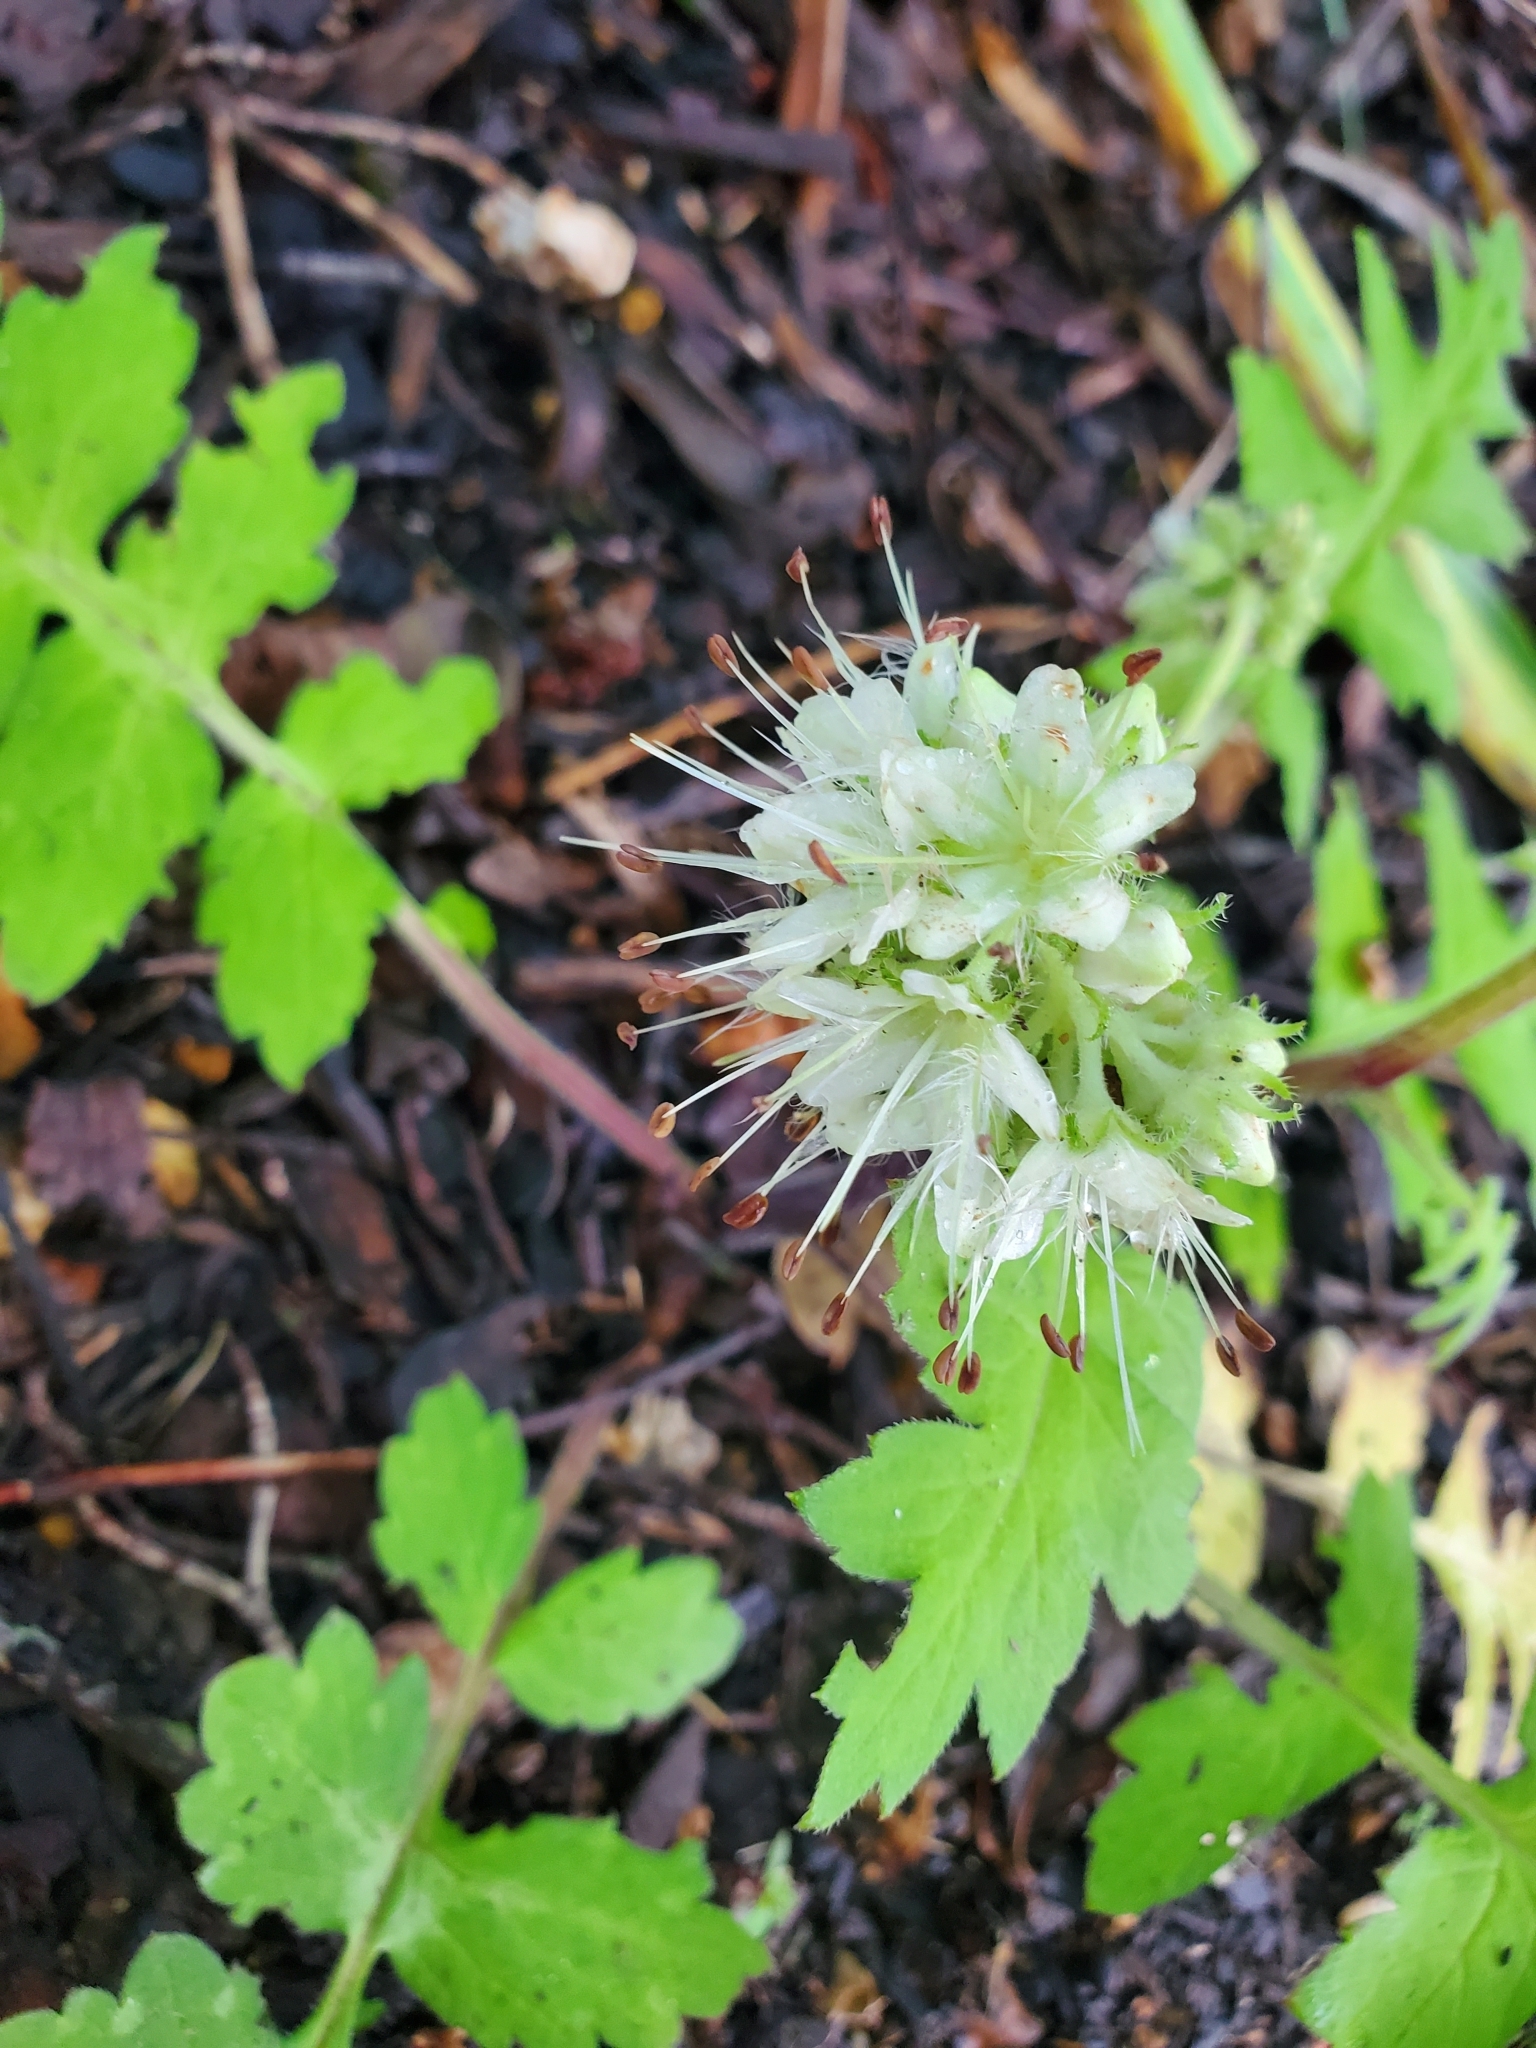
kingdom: Plantae
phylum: Tracheophyta
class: Magnoliopsida
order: Boraginales
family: Hydrophyllaceae
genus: Hydrophyllum
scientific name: Hydrophyllum macrophyllum
